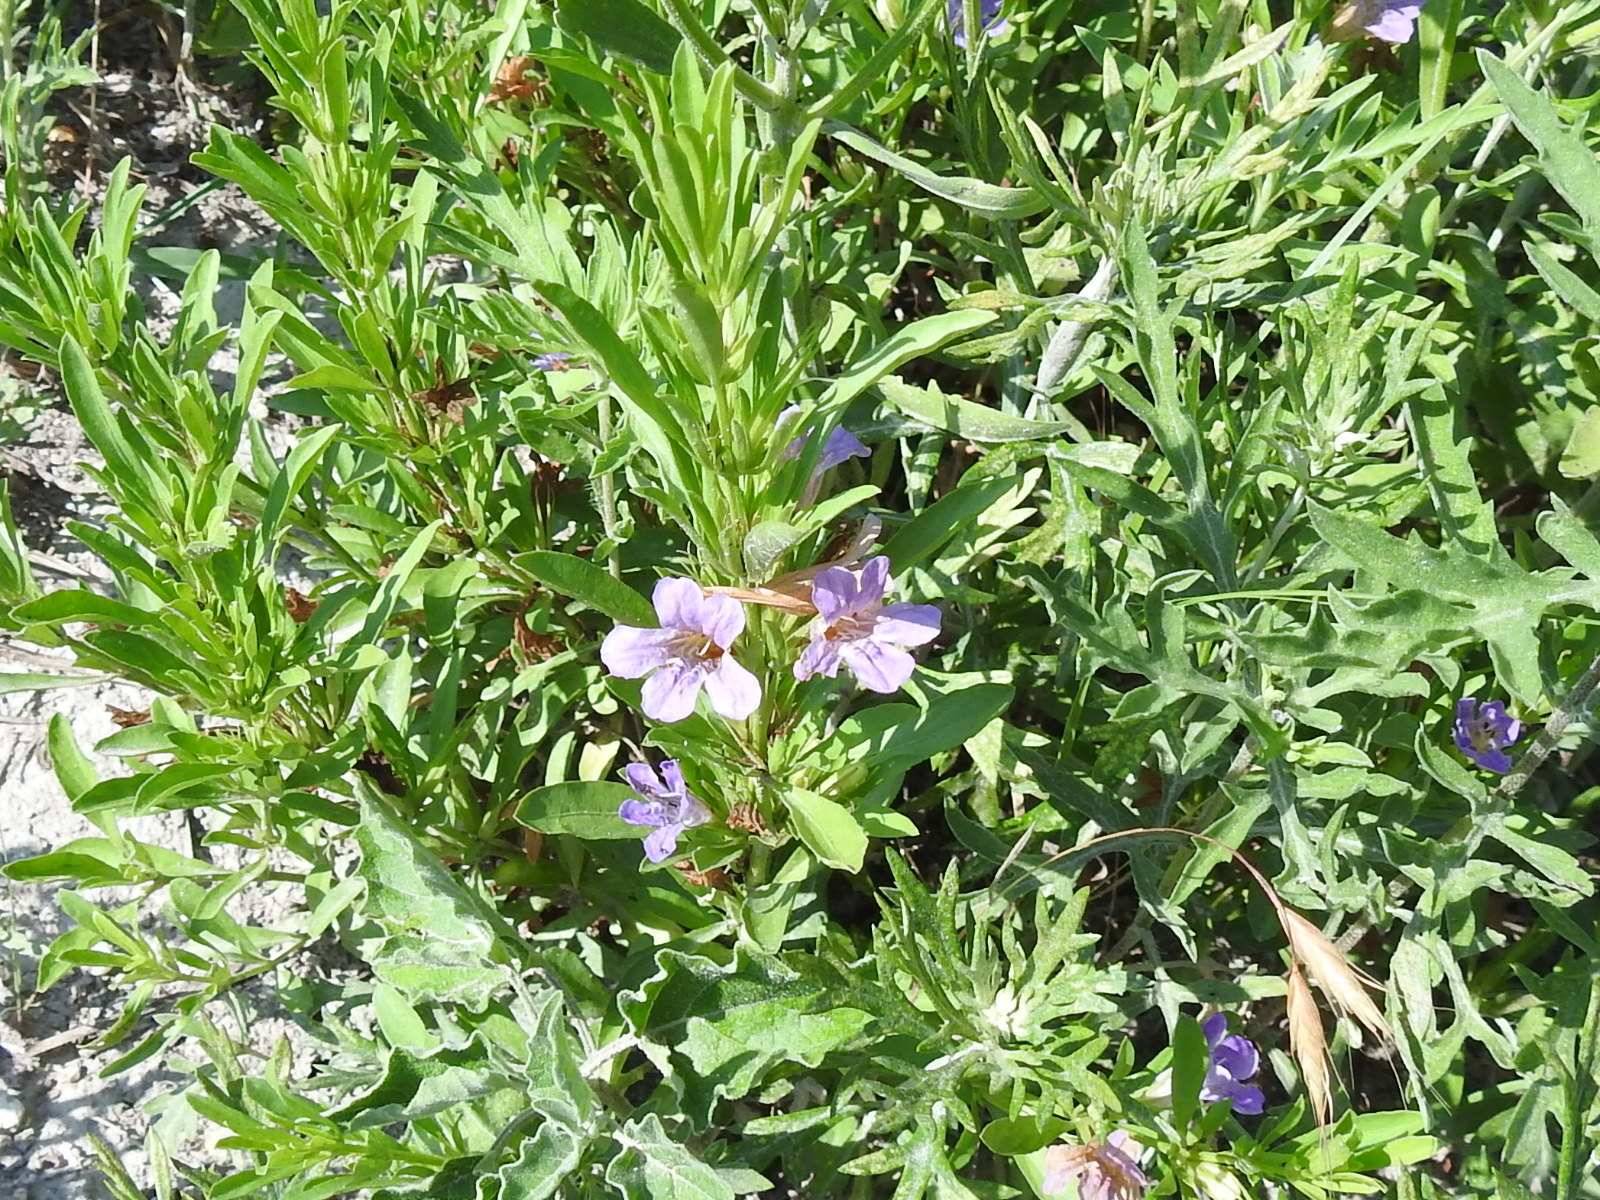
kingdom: Plantae
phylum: Tracheophyta
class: Magnoliopsida
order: Lamiales
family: Acanthaceae
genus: Dyschoriste
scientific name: Dyschoriste linearis
